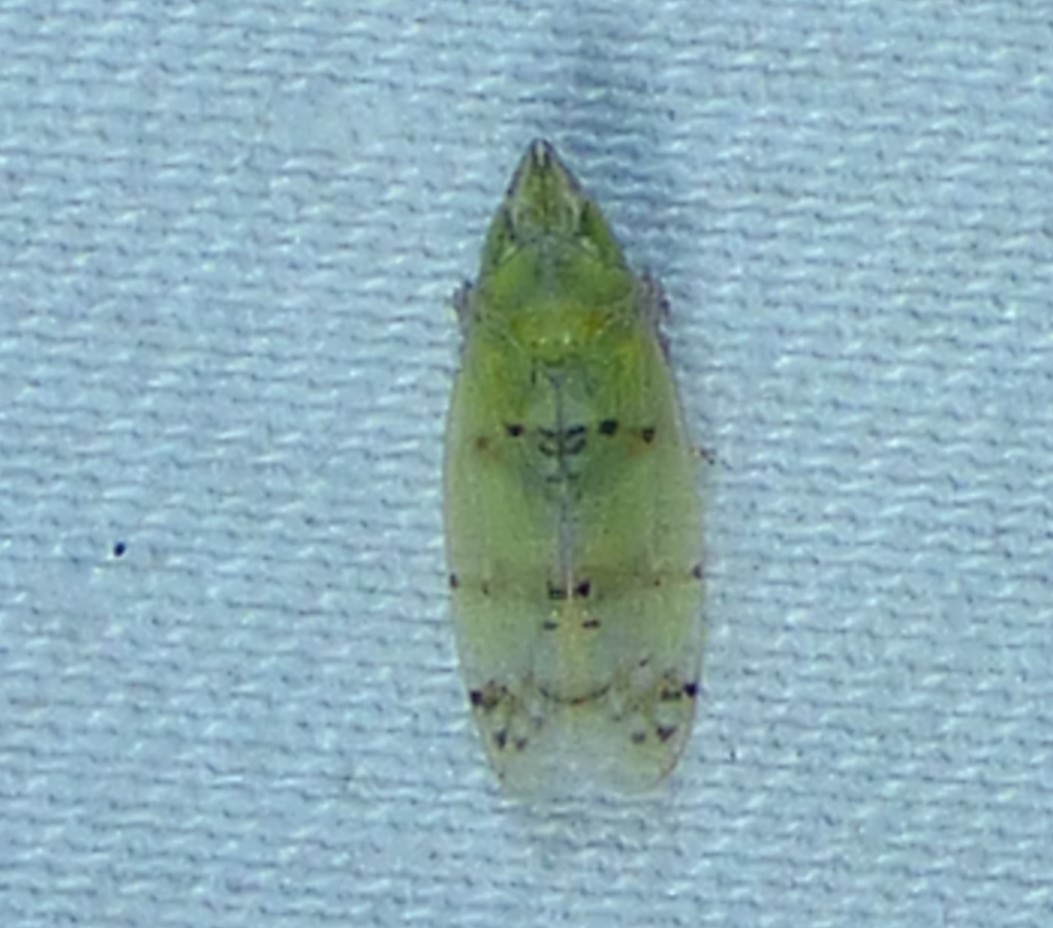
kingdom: Animalia
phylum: Arthropoda
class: Insecta
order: Hemiptera
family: Cicadellidae
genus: Japananus
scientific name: Japananus hyalinus
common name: The japanese maple leafhopper
